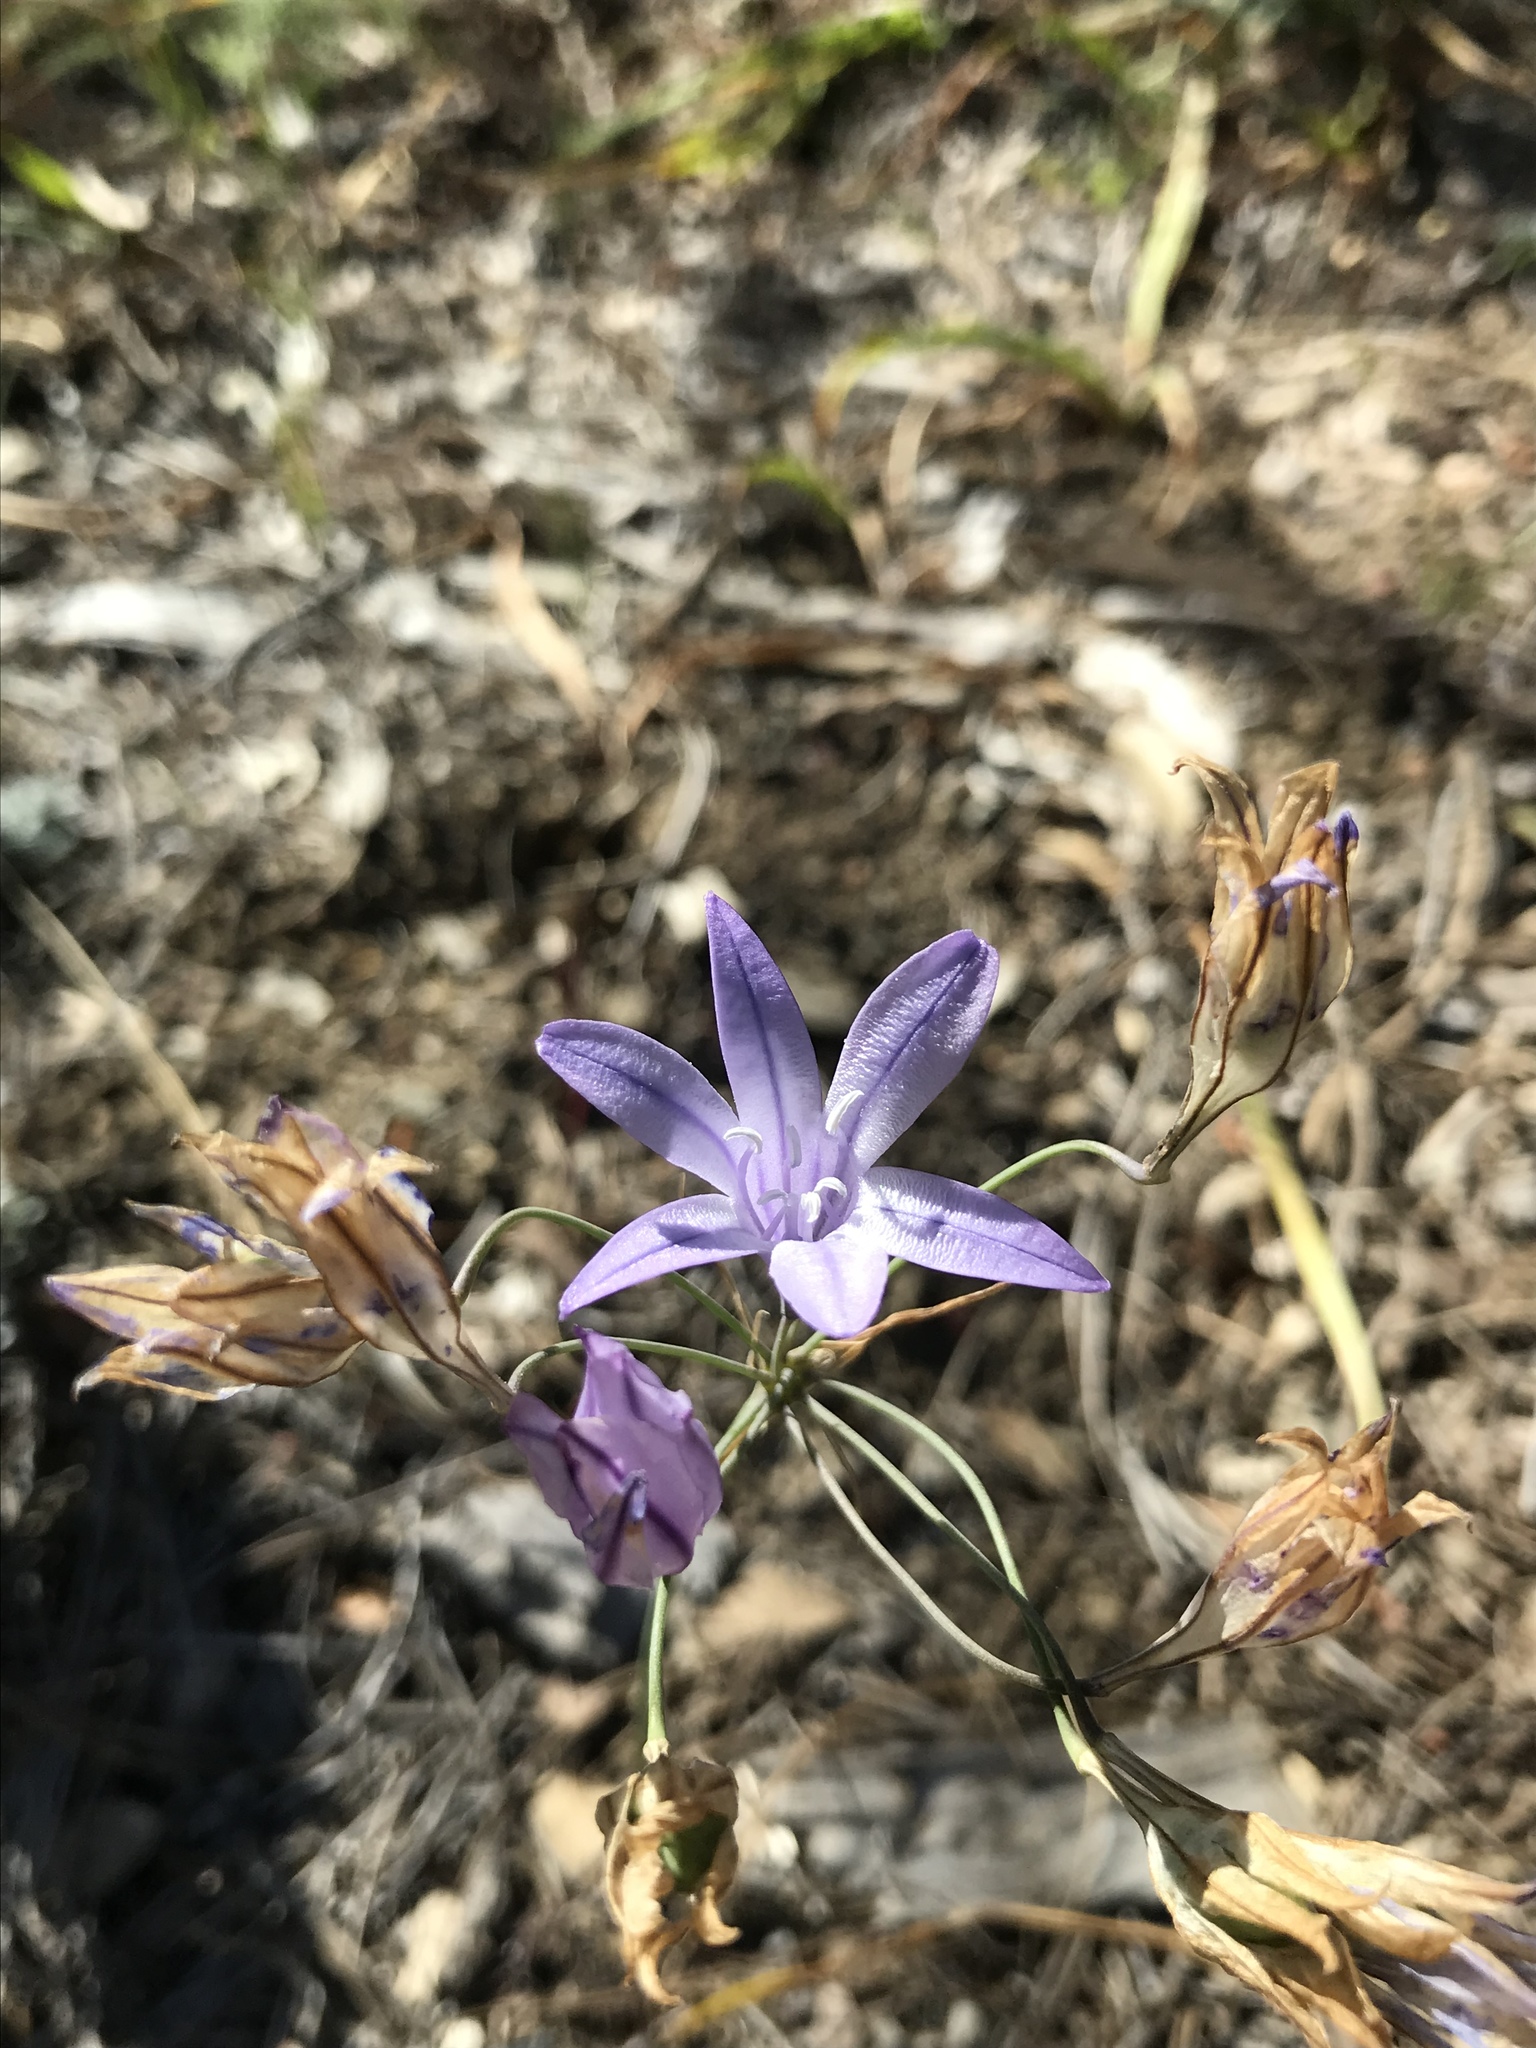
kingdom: Plantae
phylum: Tracheophyta
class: Liliopsida
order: Asparagales
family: Asparagaceae
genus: Triteleia
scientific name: Triteleia laxa
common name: Triplet-lily
